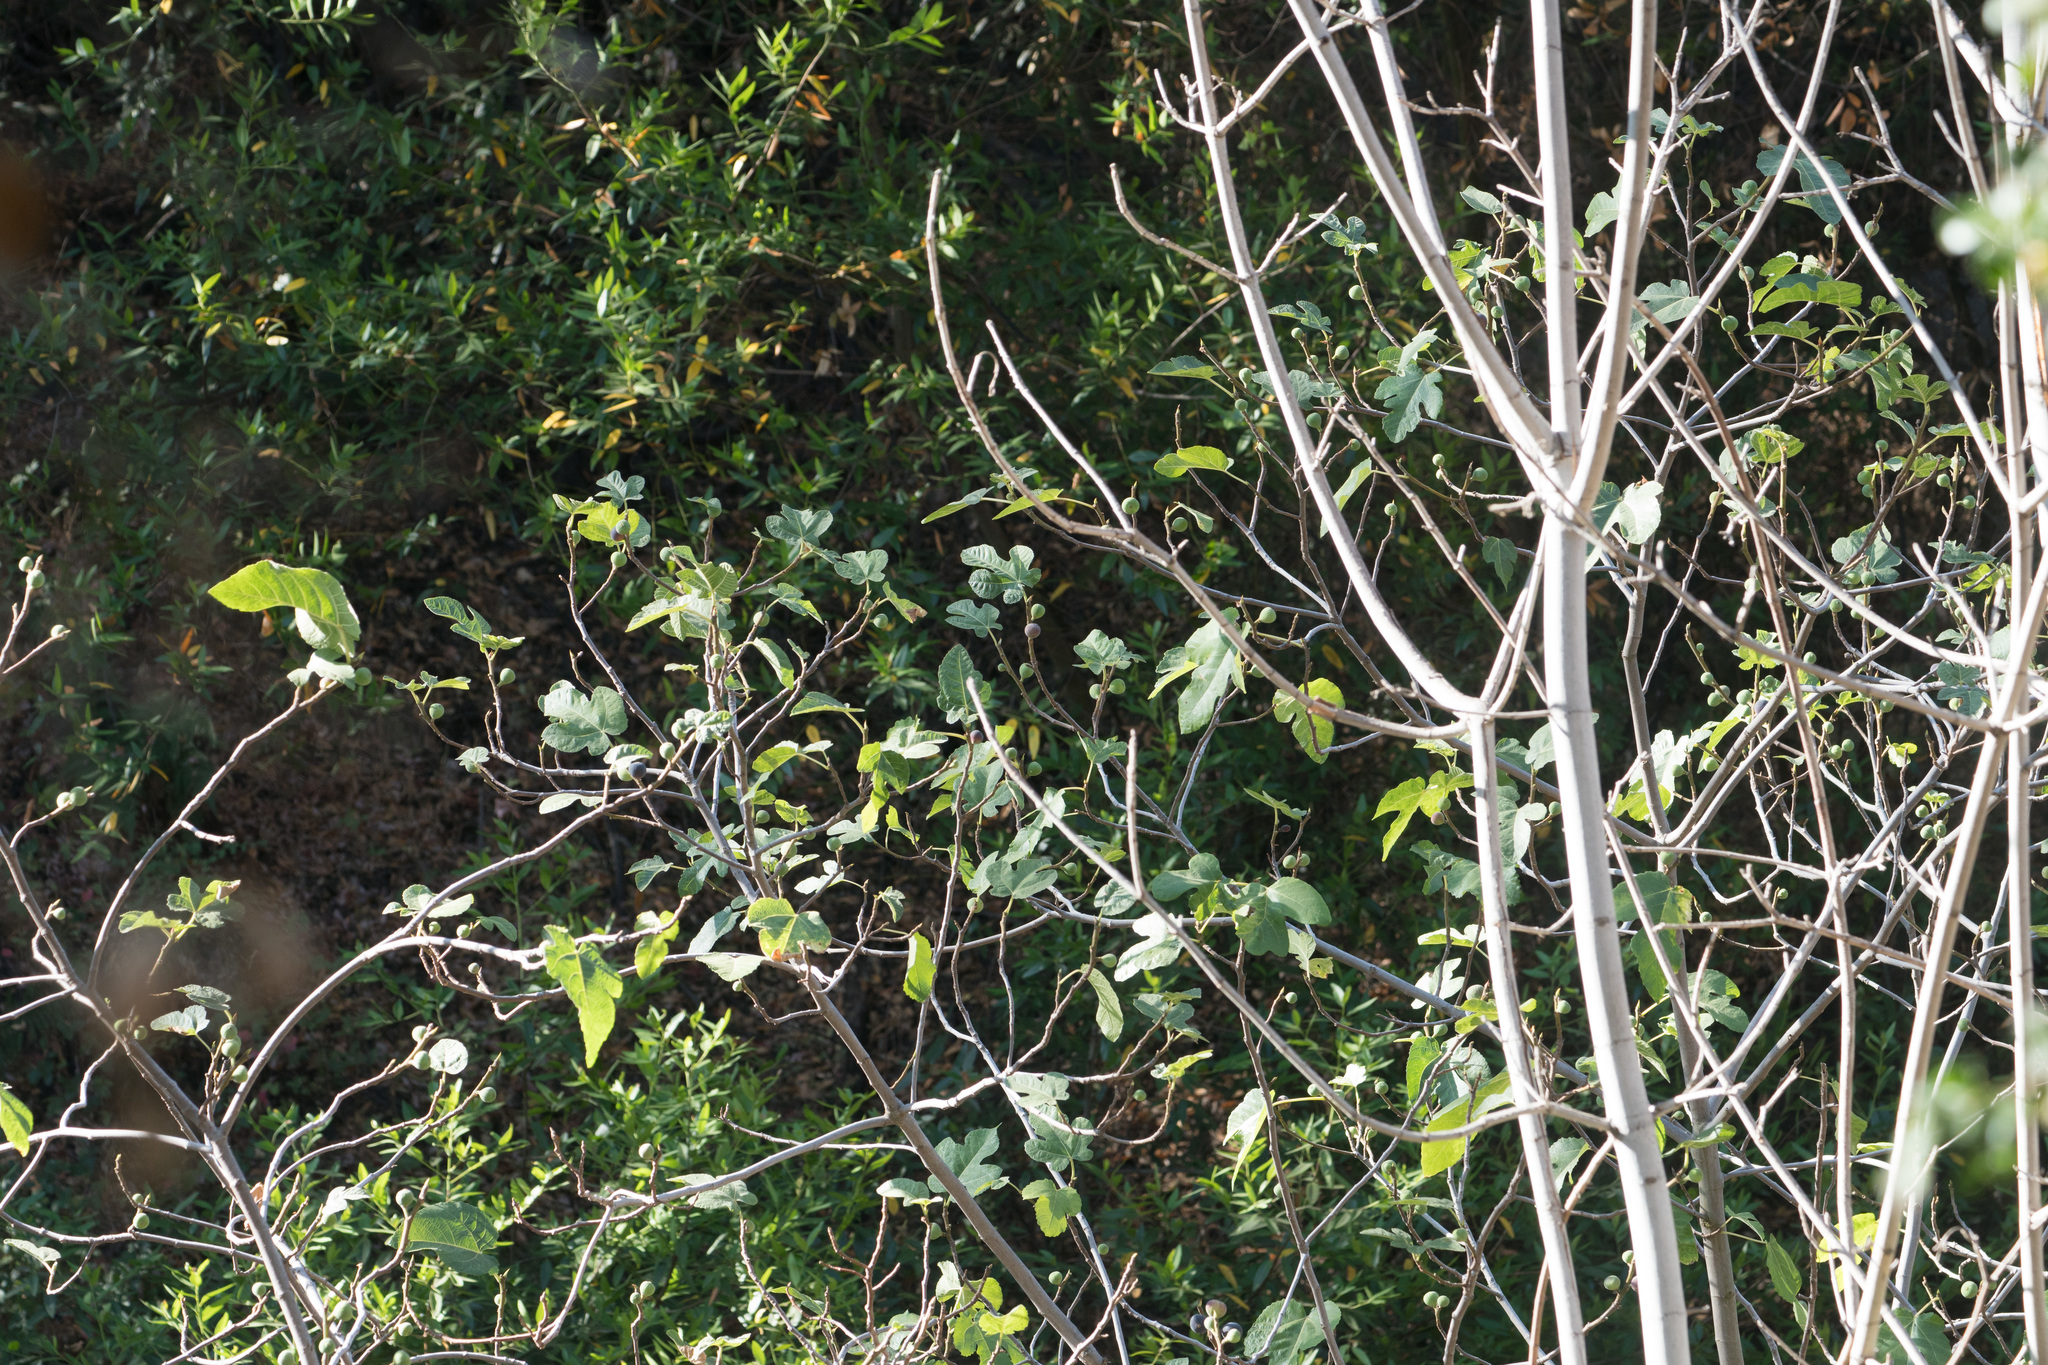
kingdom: Plantae
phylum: Tracheophyta
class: Magnoliopsida
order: Rosales
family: Moraceae
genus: Ficus
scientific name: Ficus carica
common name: Fig
